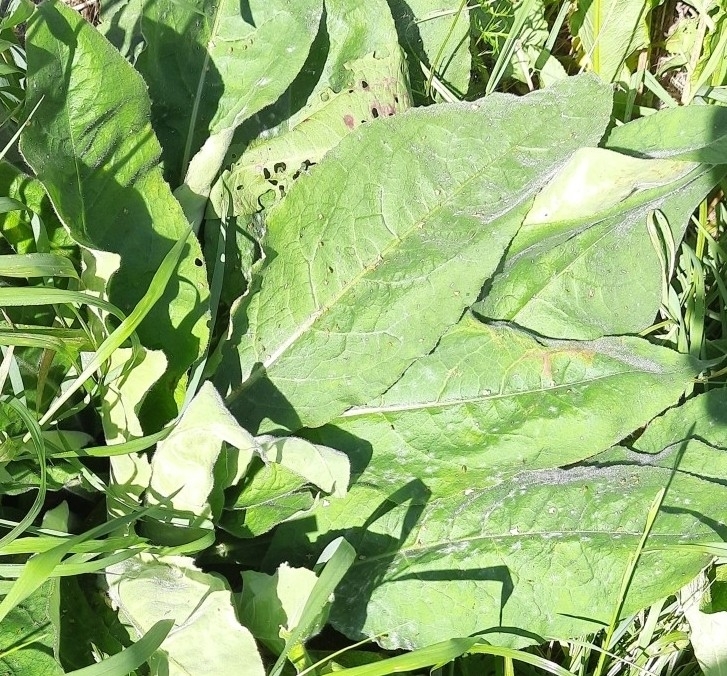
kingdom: Plantae
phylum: Tracheophyta
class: Magnoliopsida
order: Boraginales
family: Boraginaceae
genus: Pulmonaria
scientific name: Pulmonaria mollis
